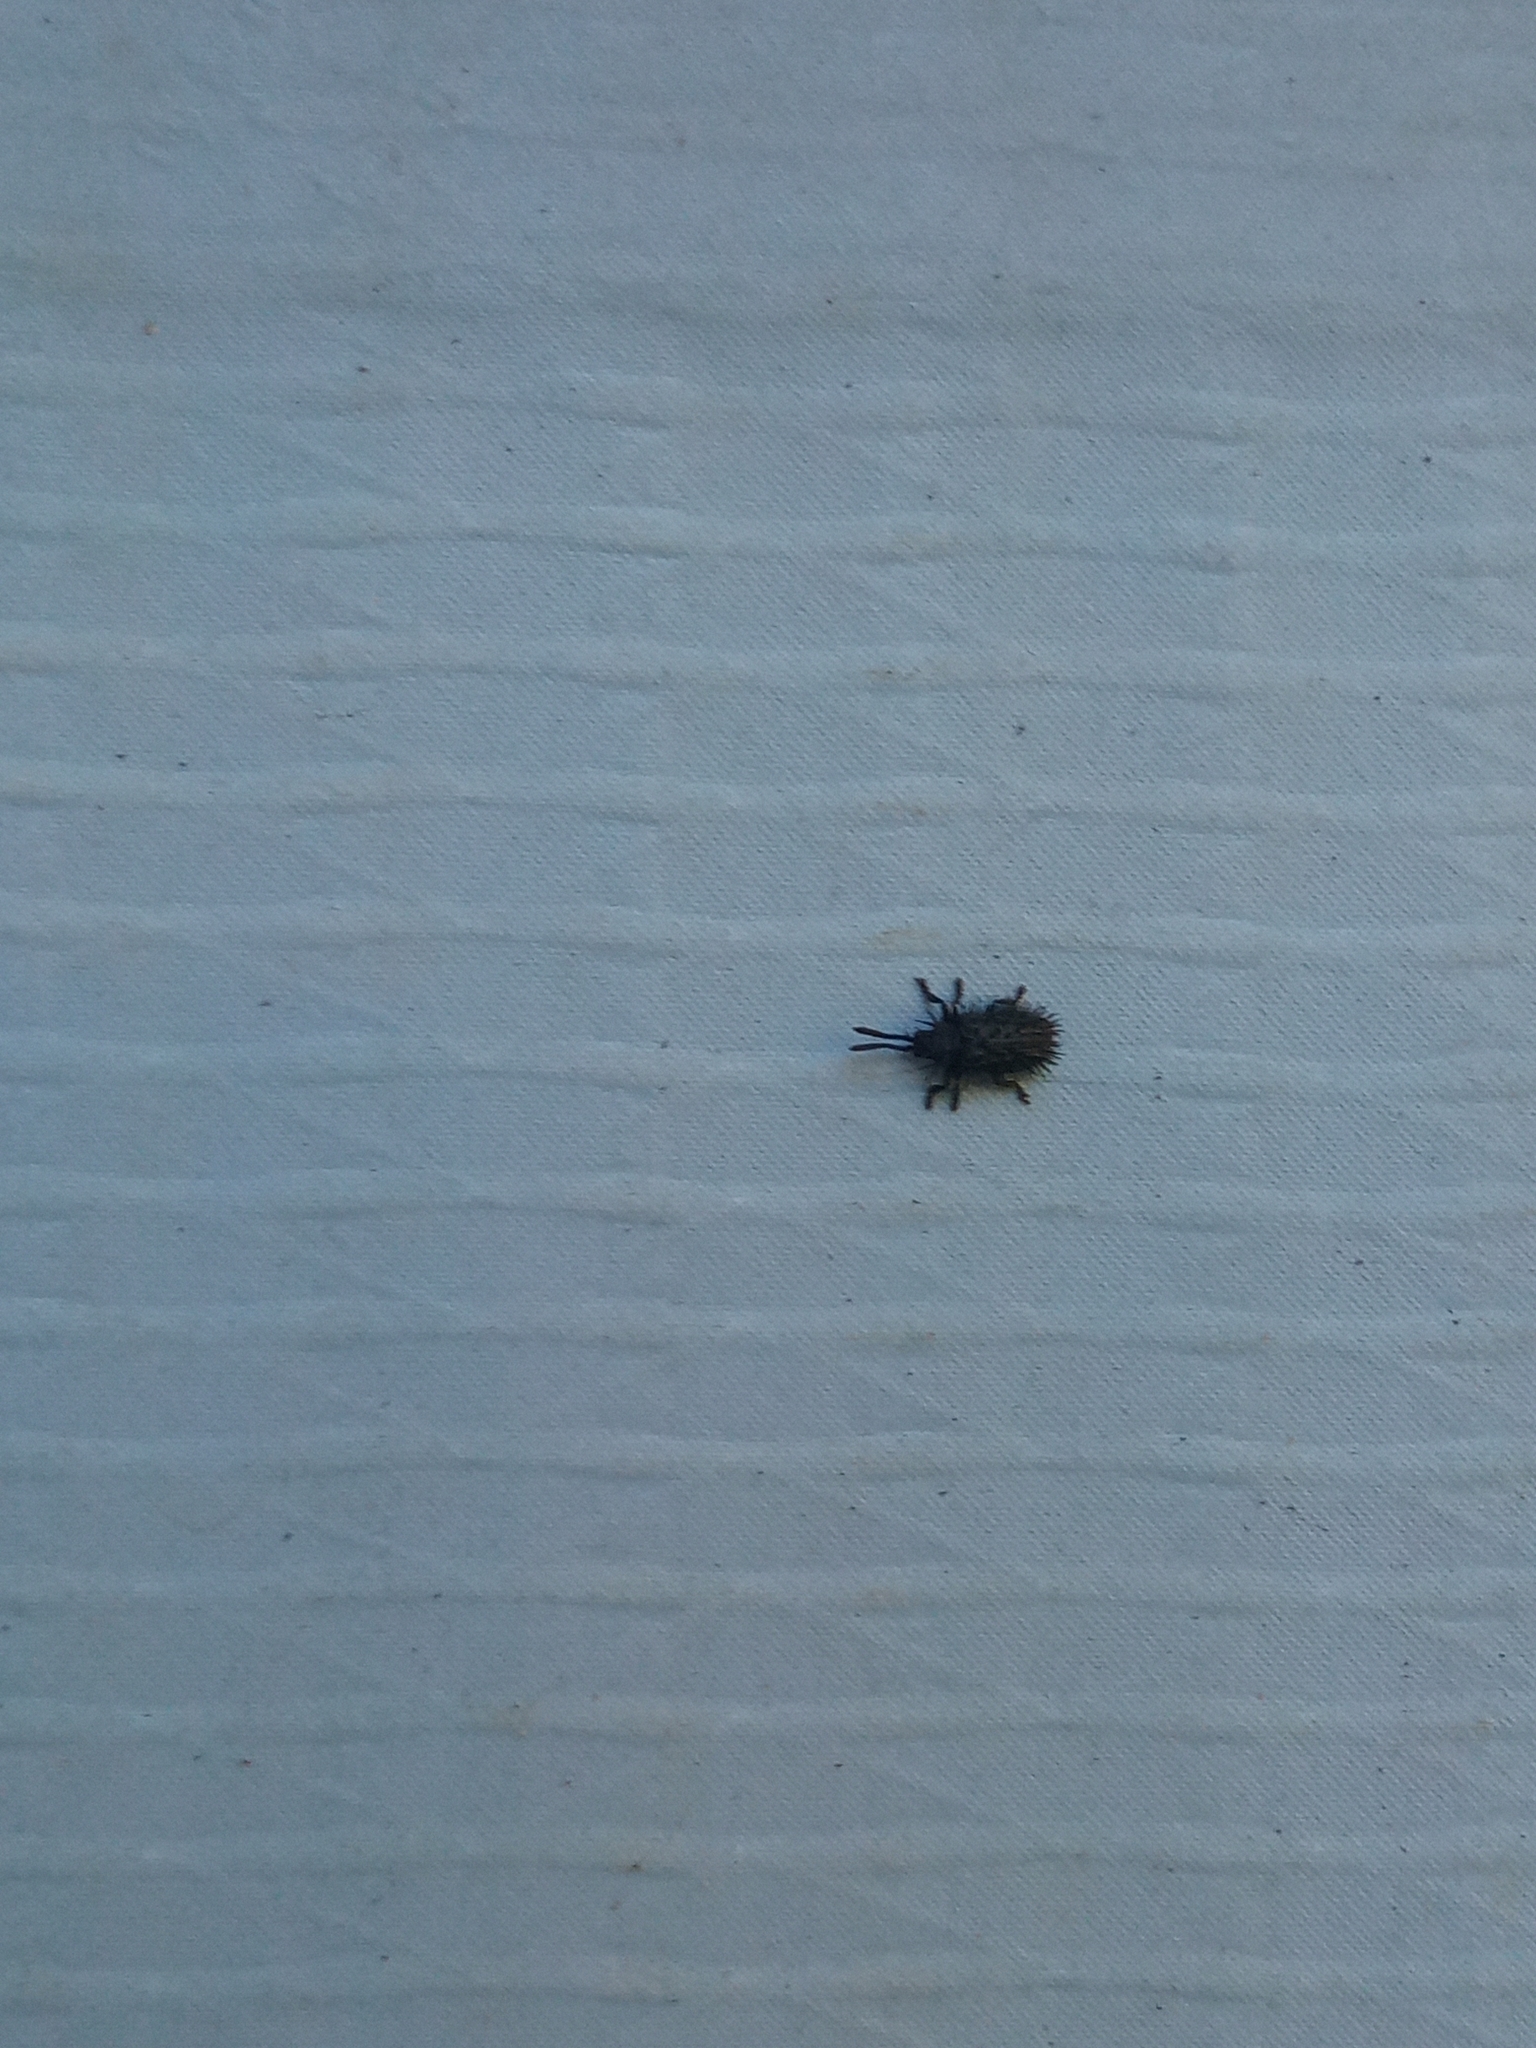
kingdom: Animalia
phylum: Arthropoda
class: Insecta
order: Coleoptera
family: Chrysomelidae
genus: Hispa
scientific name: Hispa atra
